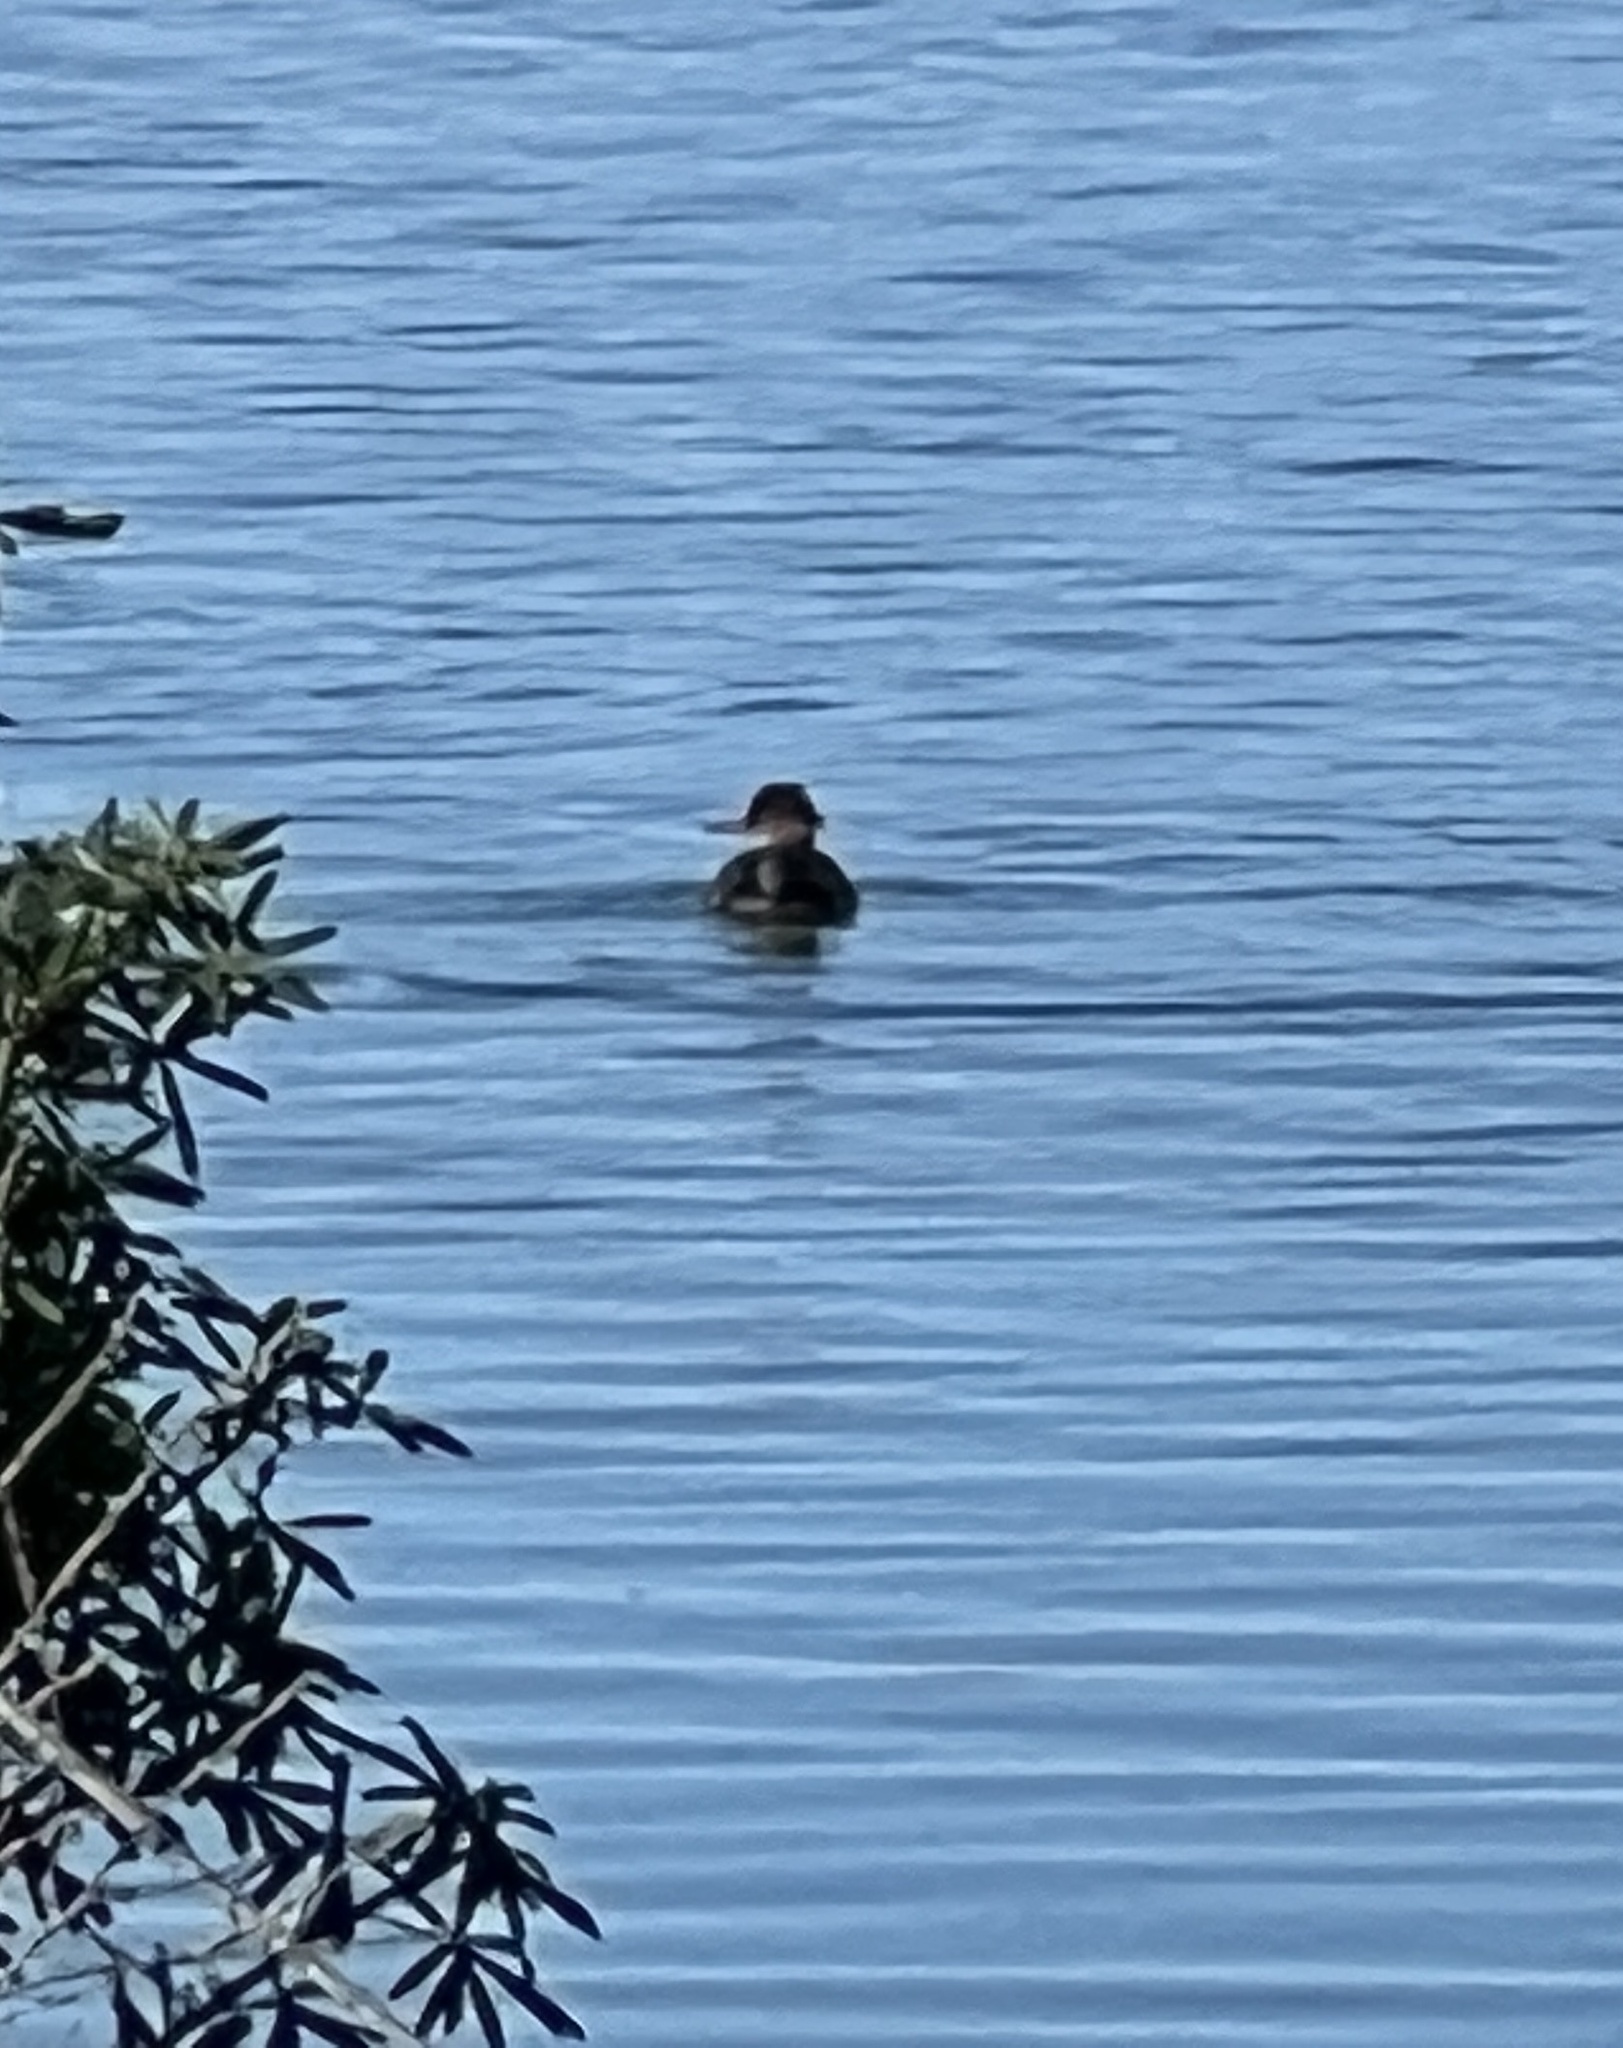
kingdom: Animalia
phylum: Chordata
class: Aves
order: Anseriformes
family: Anatidae
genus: Lophodytes
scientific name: Lophodytes cucullatus
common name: Hooded merganser
